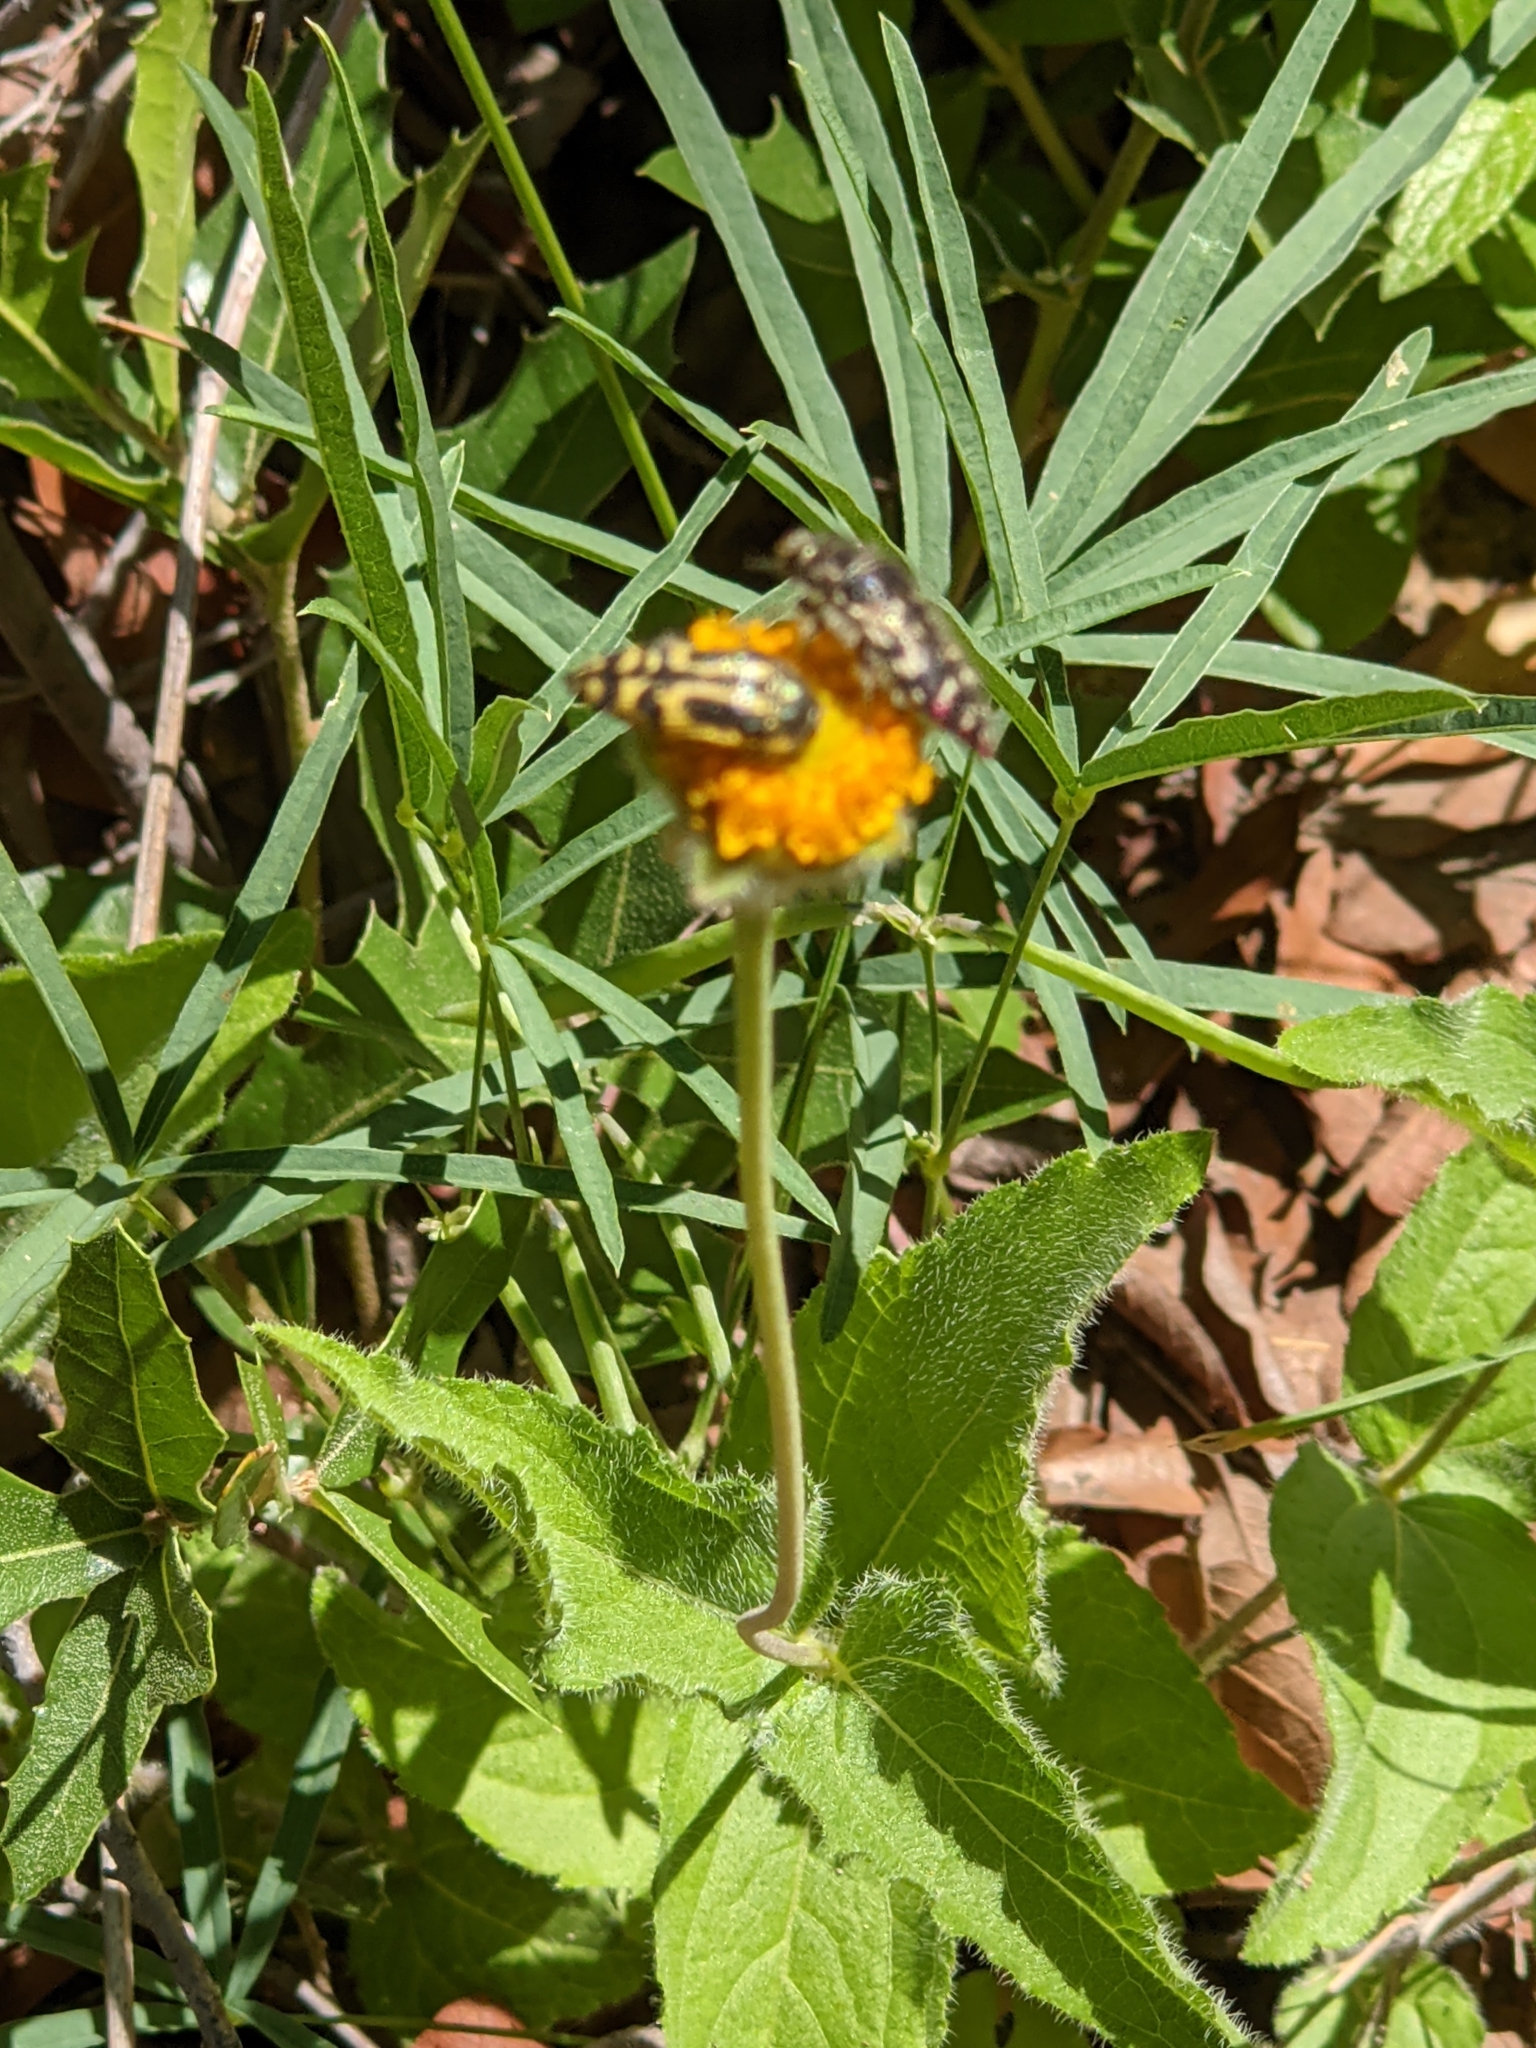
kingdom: Animalia
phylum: Arthropoda
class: Insecta
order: Coleoptera
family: Buprestidae
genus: Acmaeodera
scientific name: Acmaeodera amplicollis
